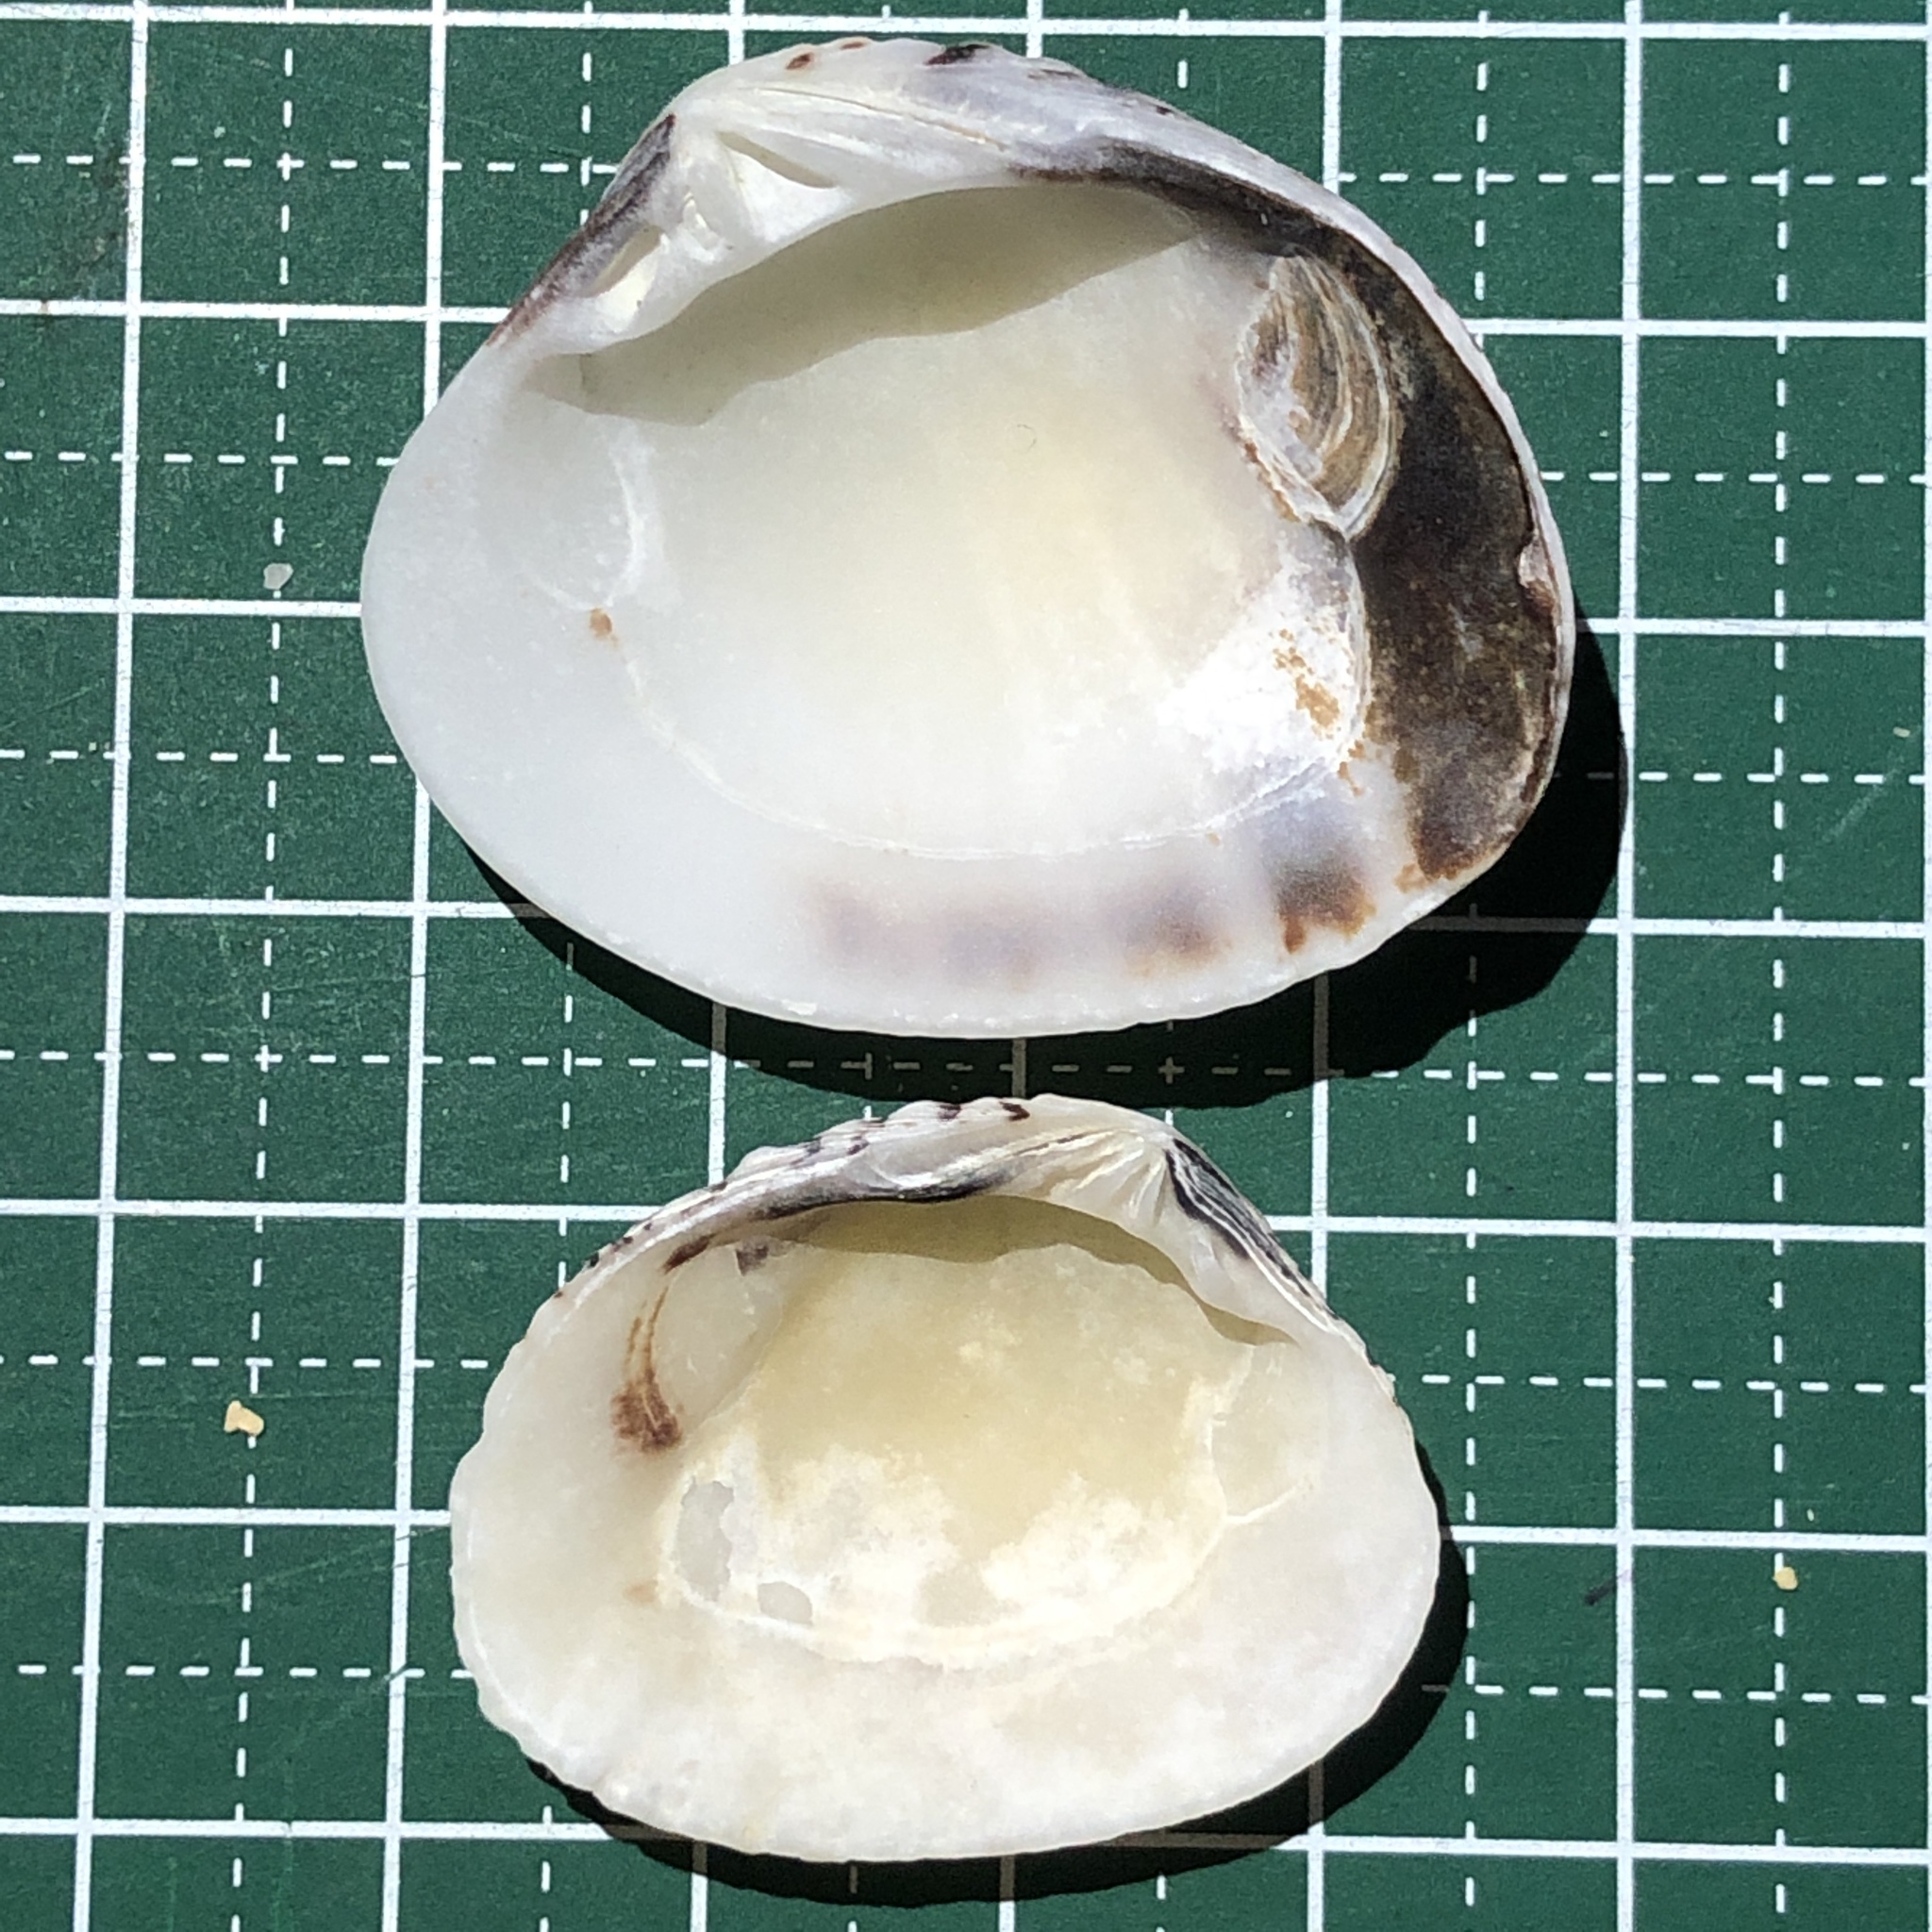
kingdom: Animalia
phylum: Mollusca
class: Bivalvia
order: Venerida
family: Veneridae
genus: Gafrarium
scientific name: Gafrarium pectinatum
